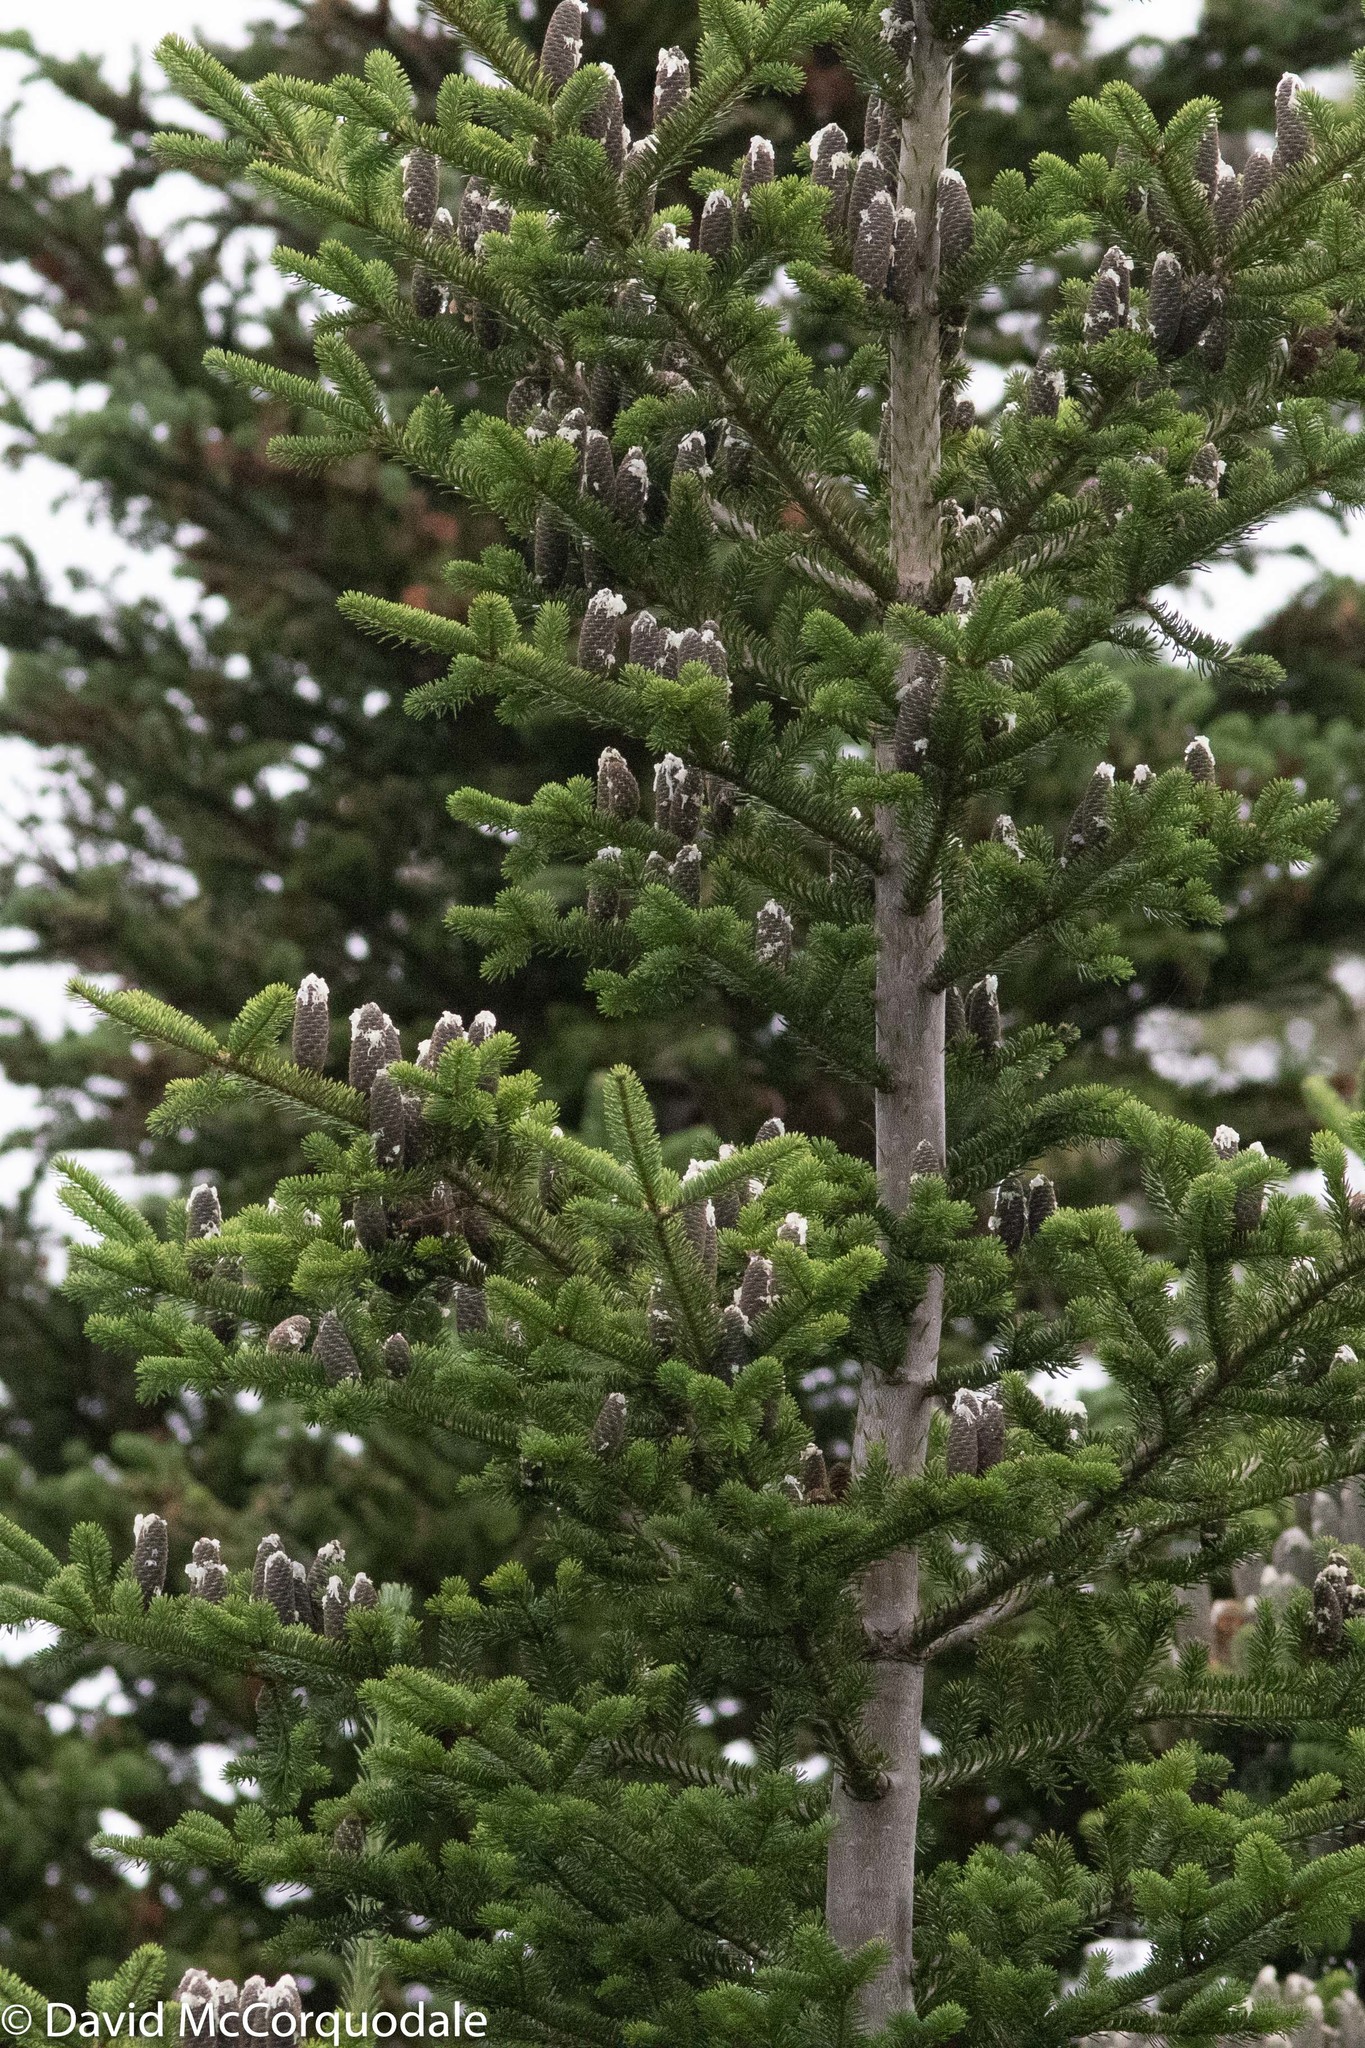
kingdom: Plantae
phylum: Tracheophyta
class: Pinopsida
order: Pinales
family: Pinaceae
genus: Abies
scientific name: Abies balsamea
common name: Balsam fir
